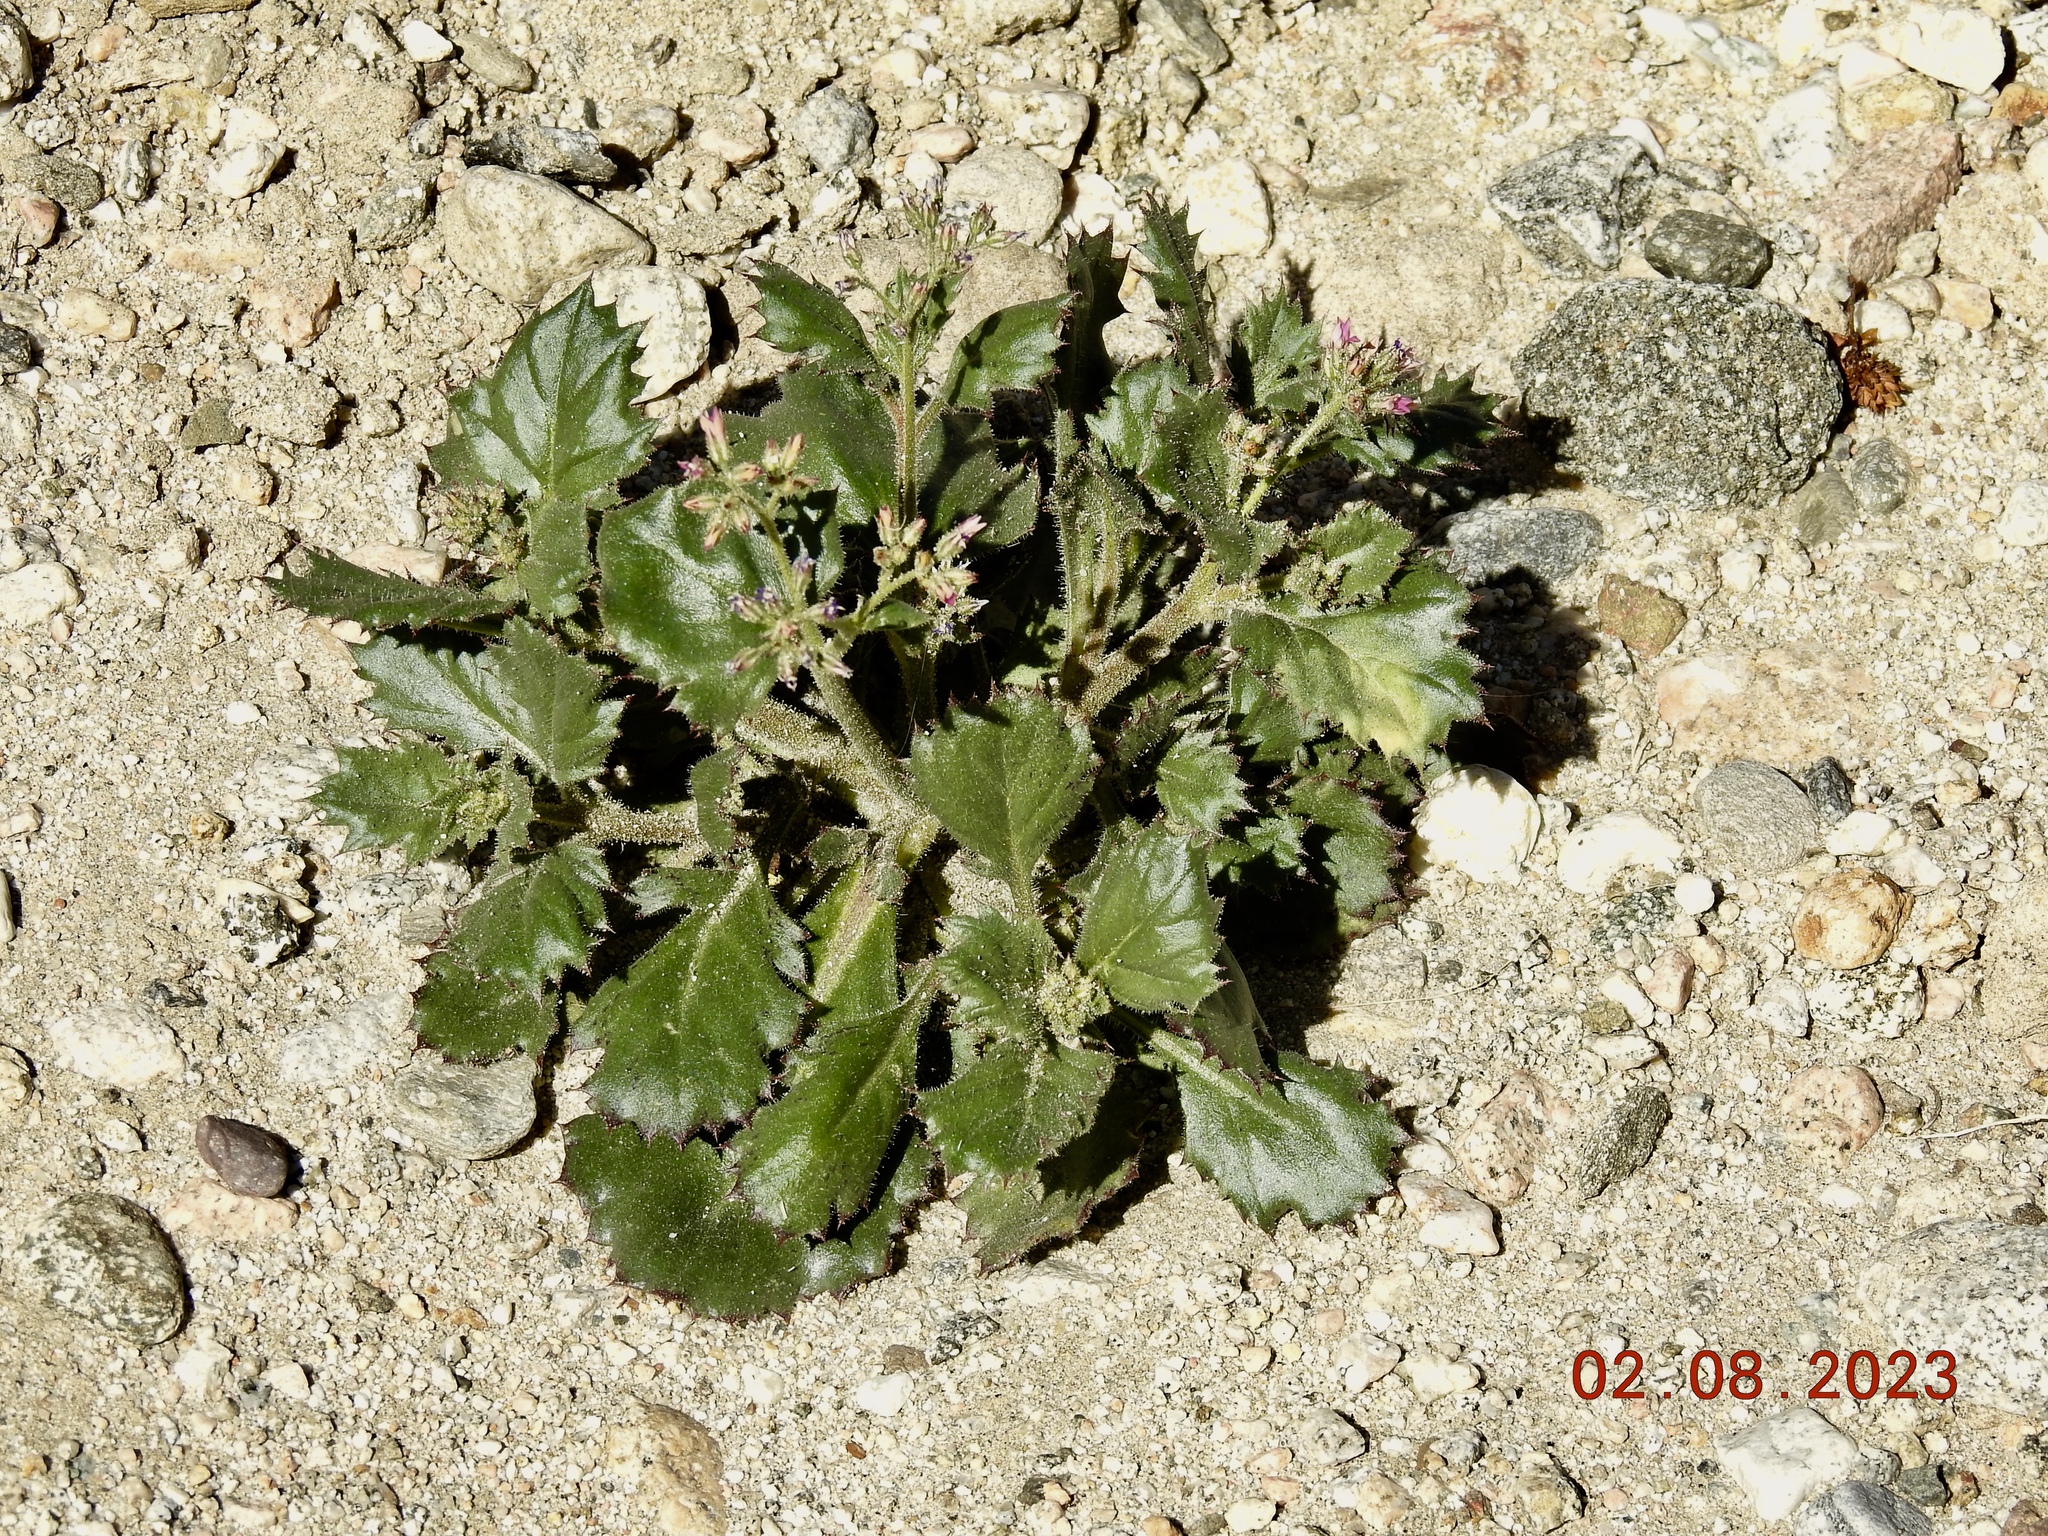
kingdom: Plantae
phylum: Tracheophyta
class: Magnoliopsida
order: Ericales
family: Polemoniaceae
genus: Aliciella
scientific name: Aliciella latifolia
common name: Broad-leaf gilia
